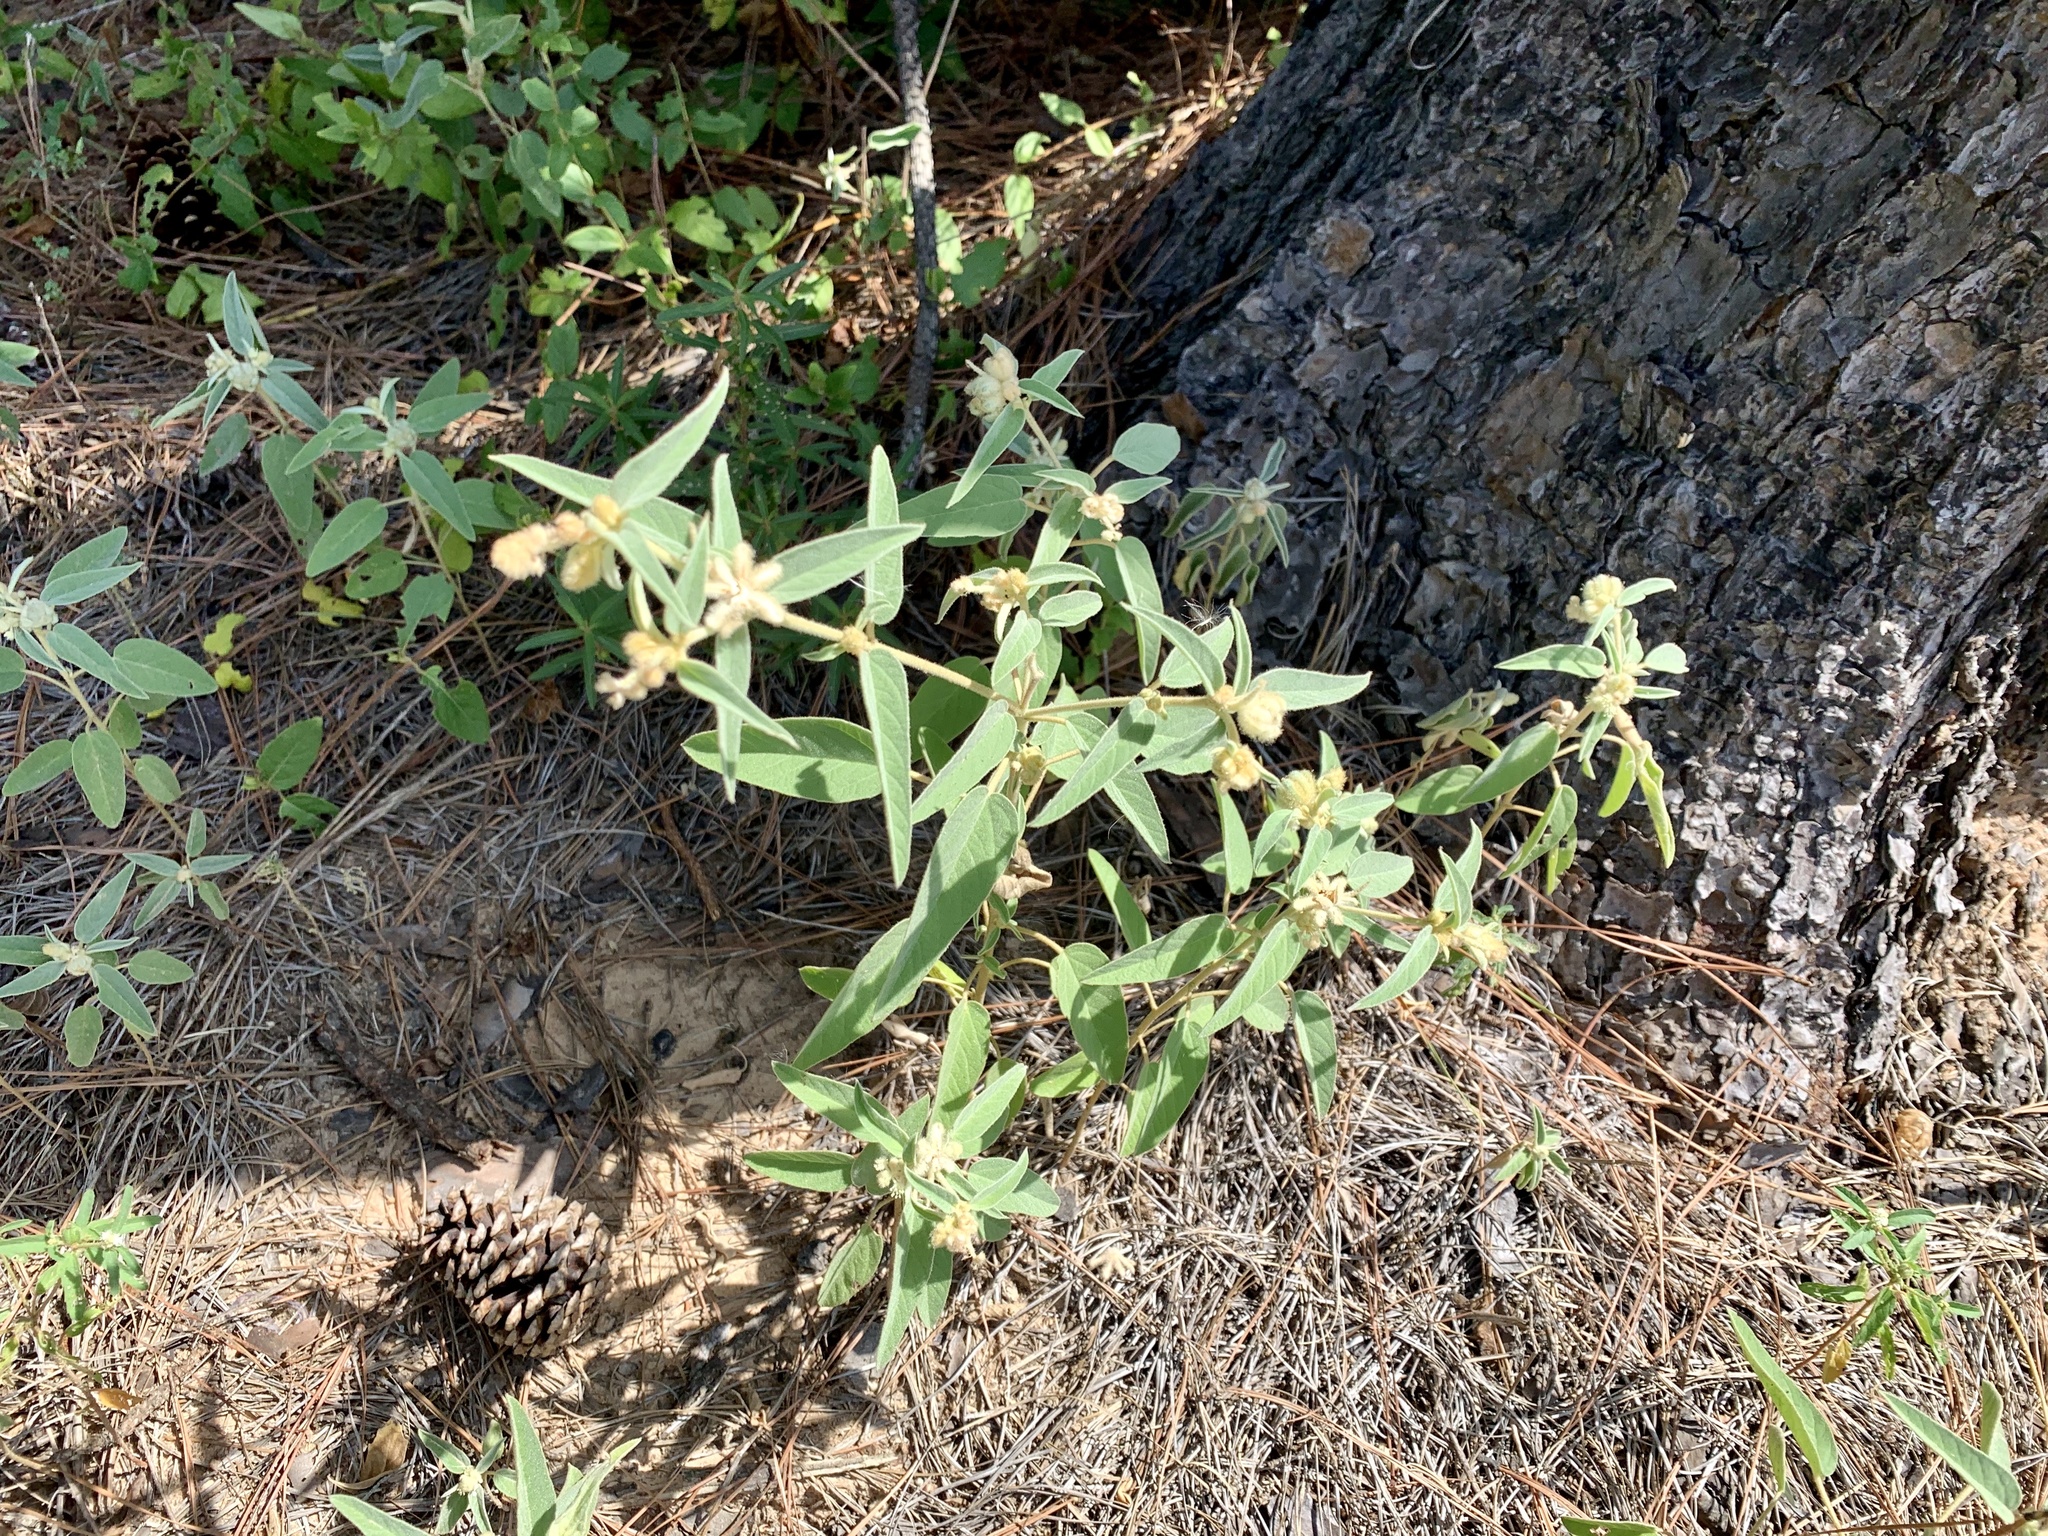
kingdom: Plantae
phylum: Tracheophyta
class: Magnoliopsida
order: Malpighiales
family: Euphorbiaceae
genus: Croton
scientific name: Croton lindheimeri
